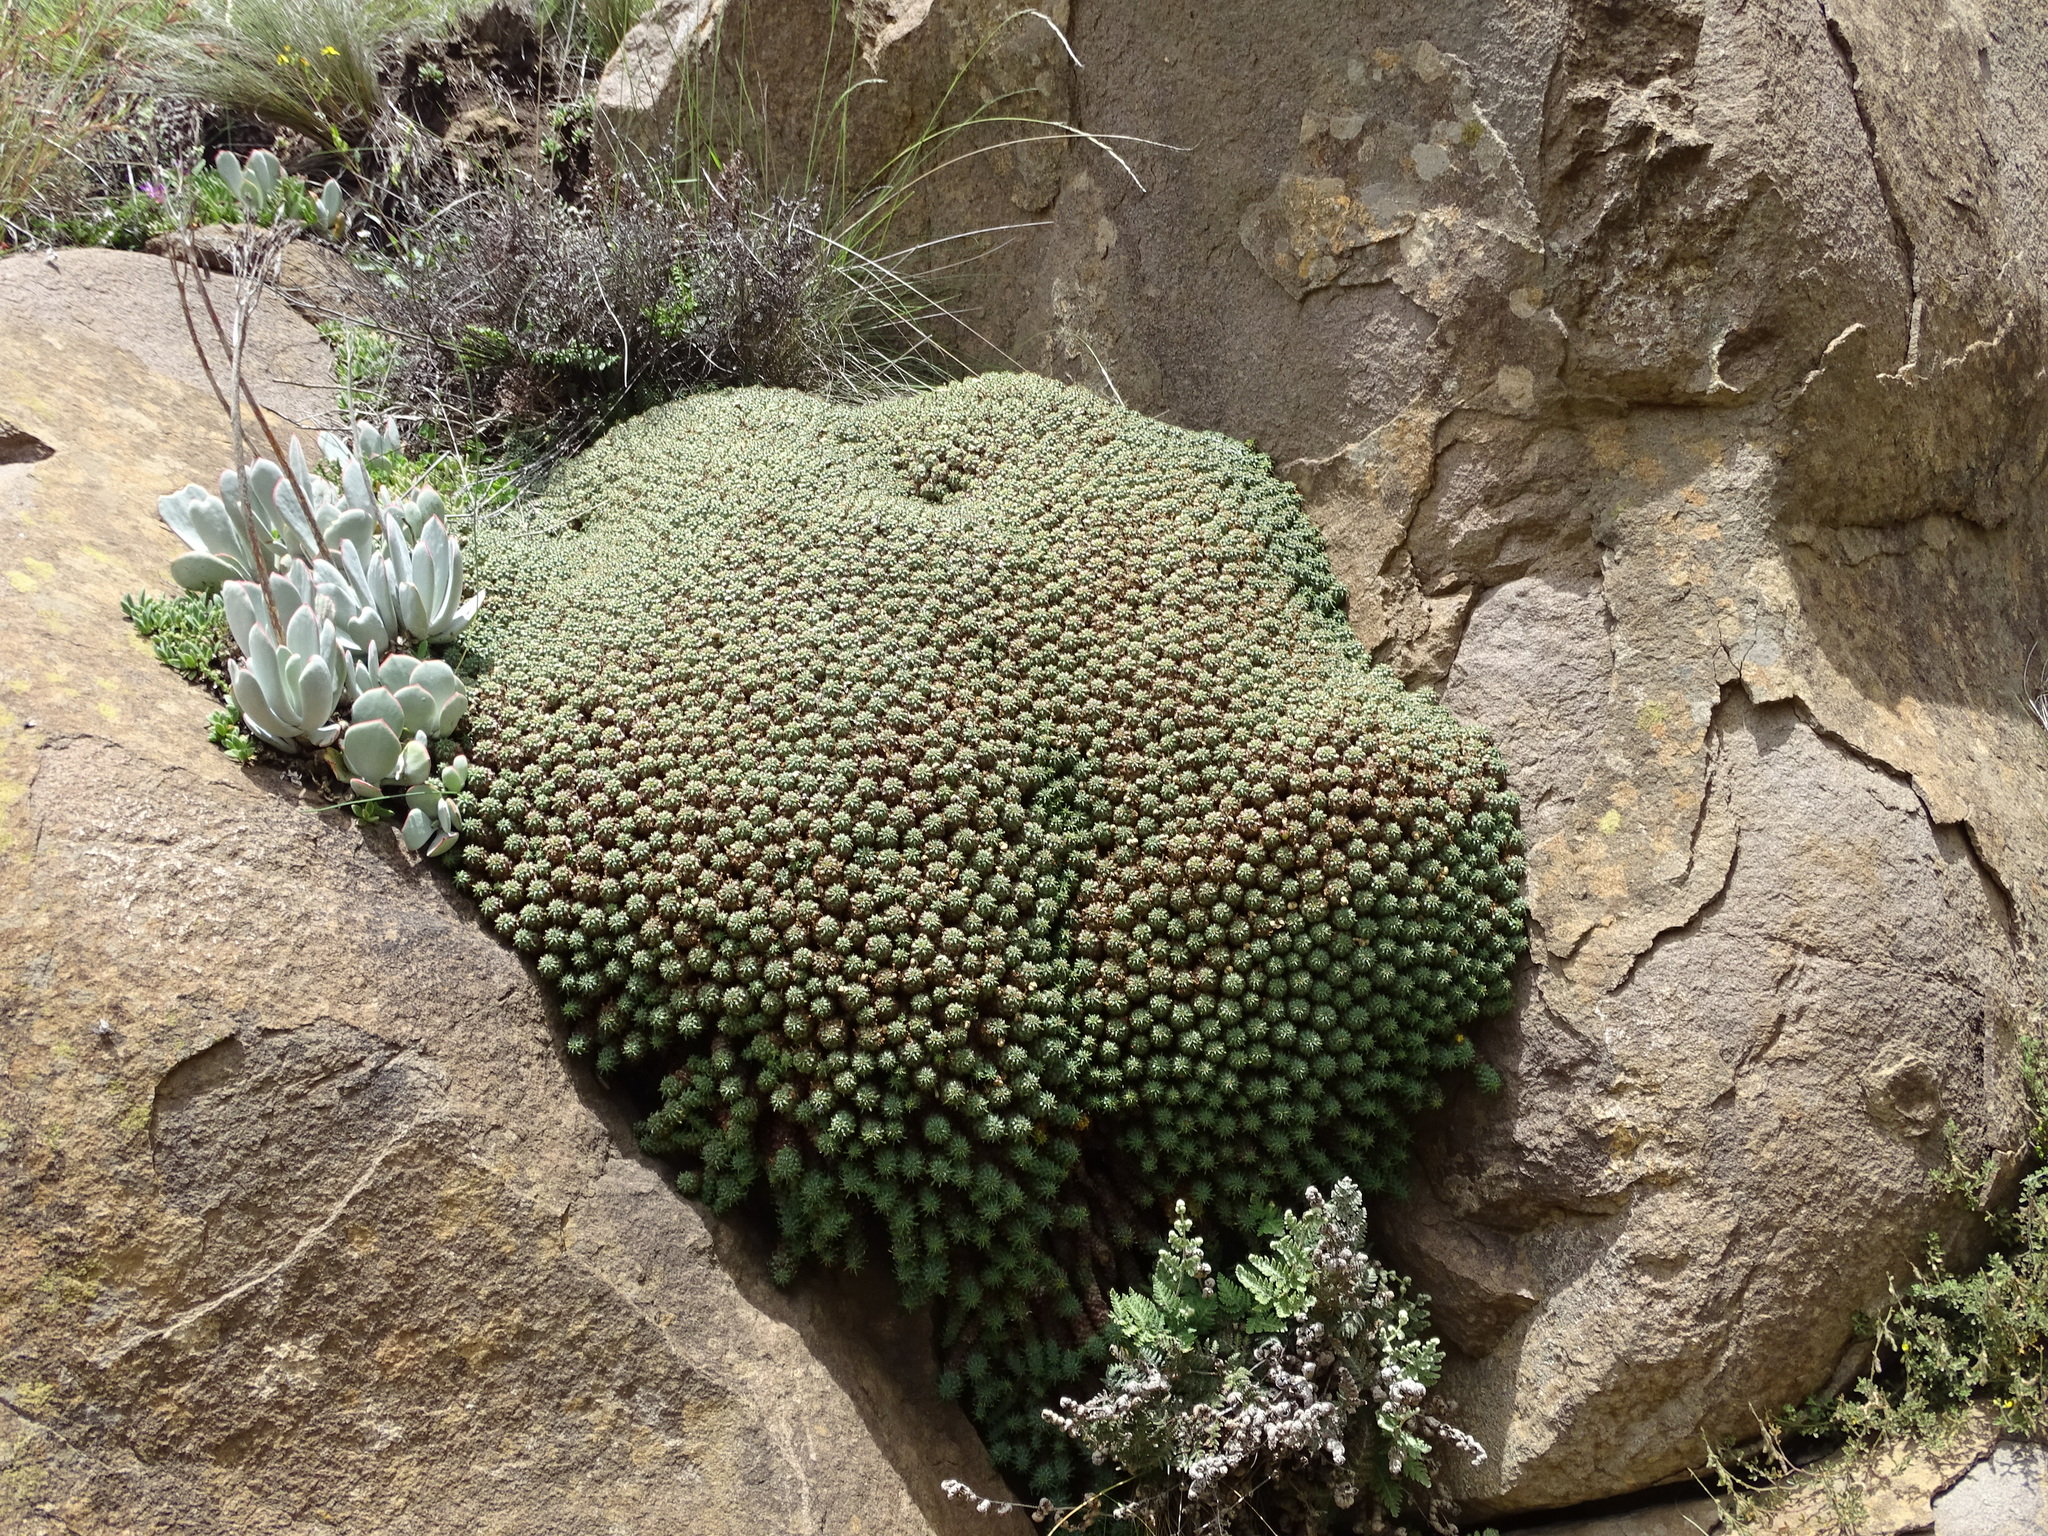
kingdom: Plantae
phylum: Tracheophyta
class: Magnoliopsida
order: Malpighiales
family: Euphorbiaceae
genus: Euphorbia
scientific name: Euphorbia clavarioides
